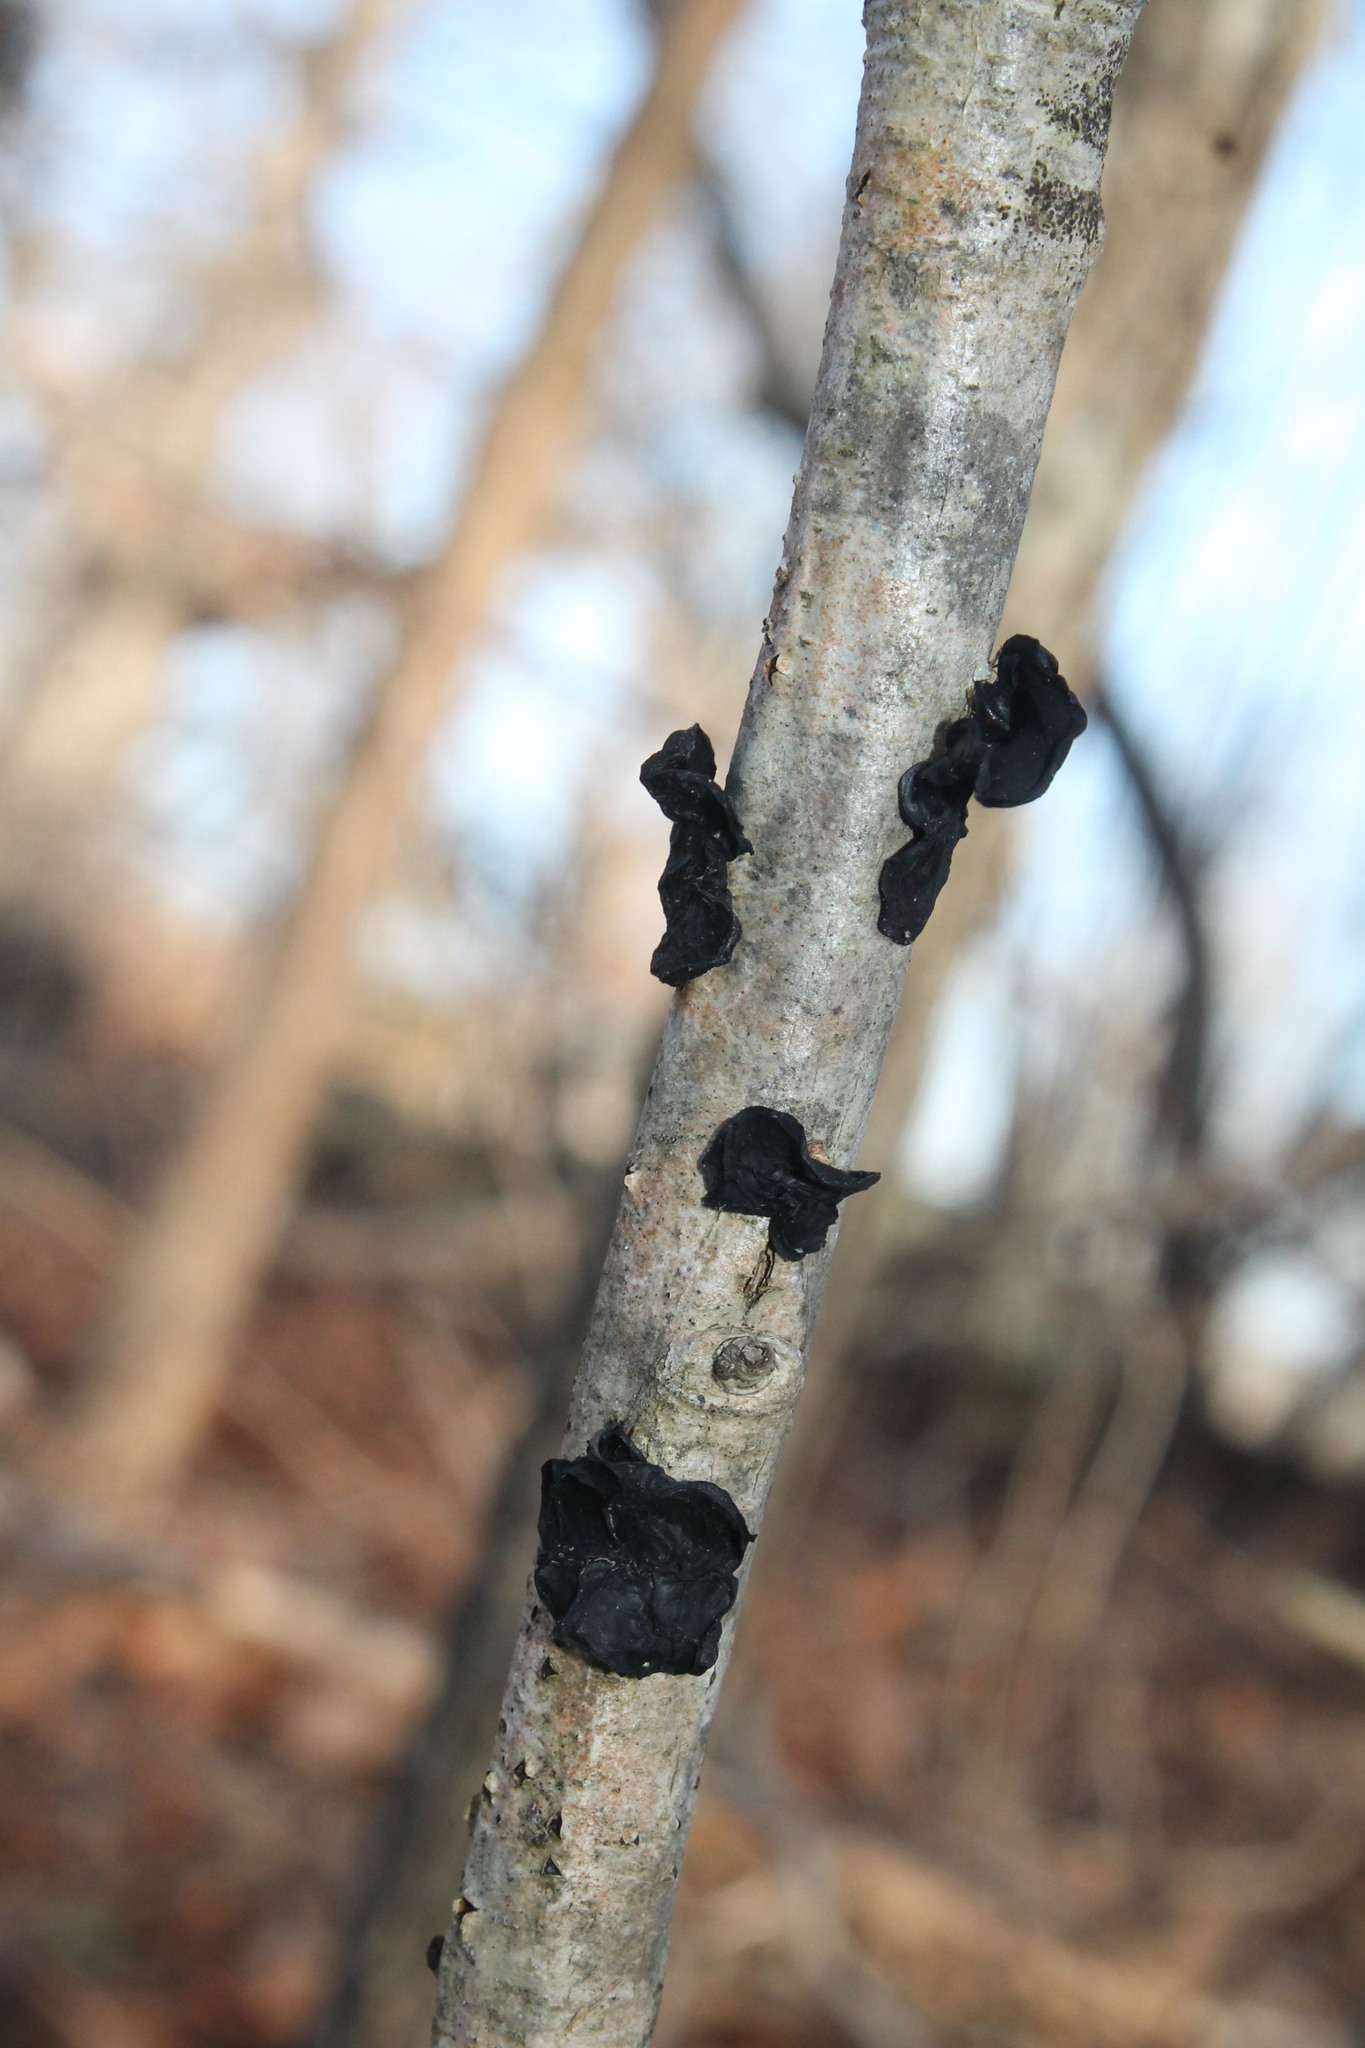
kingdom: Fungi
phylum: Basidiomycota
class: Agaricomycetes
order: Auriculariales
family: Auriculariaceae
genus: Exidia
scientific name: Exidia
